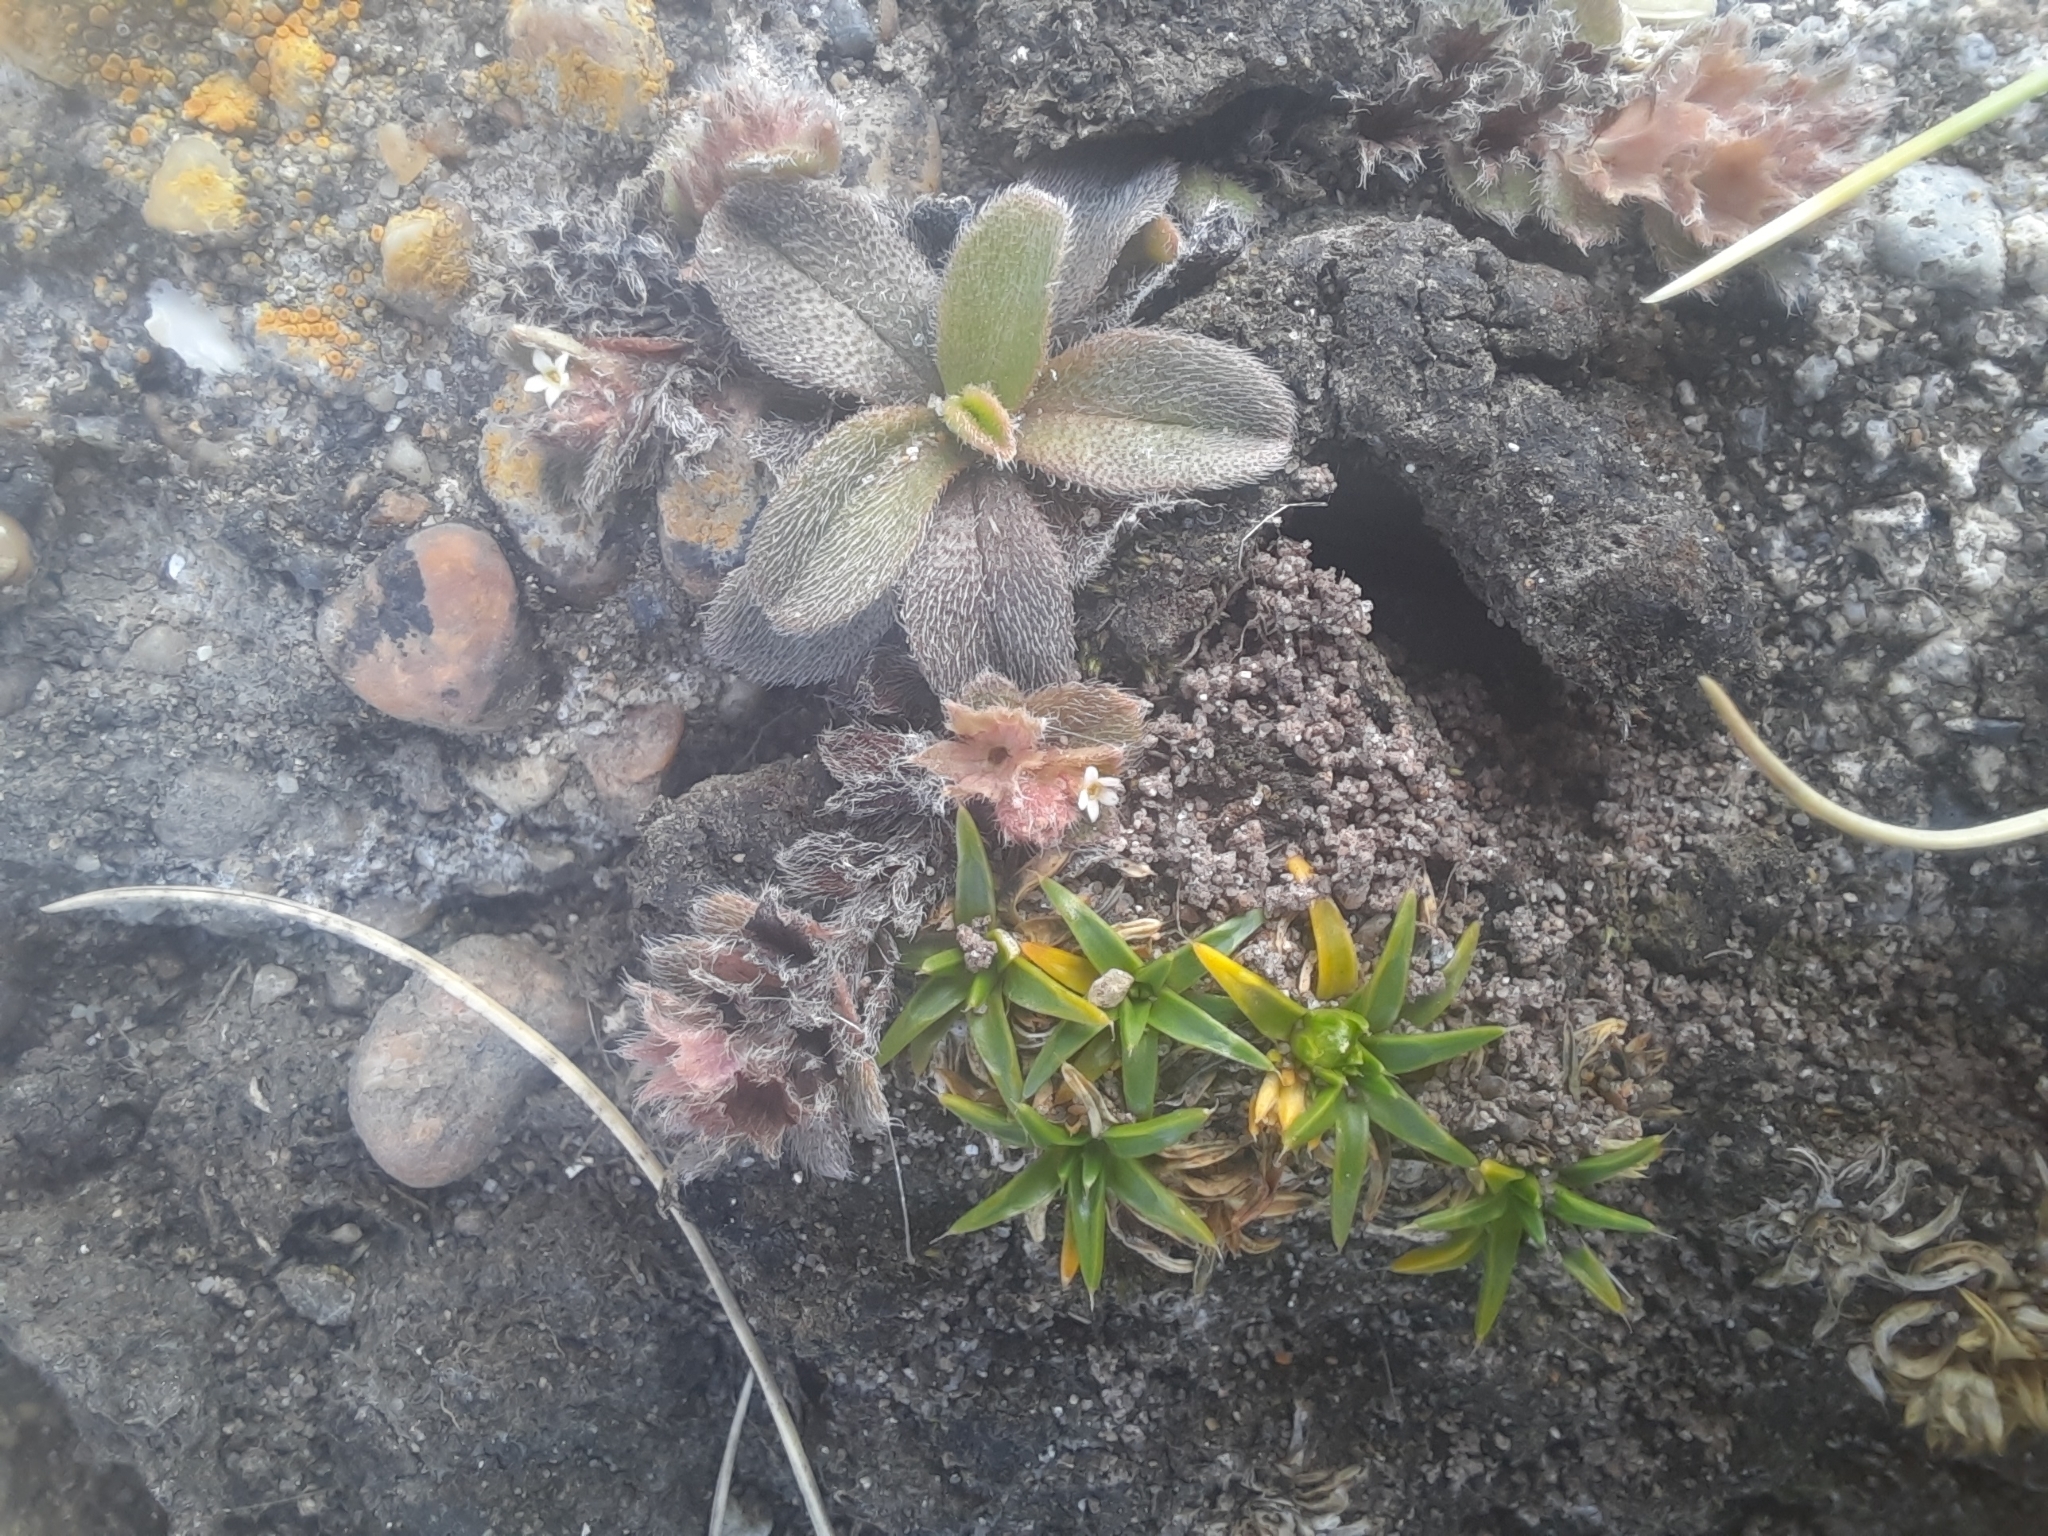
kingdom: Plantae
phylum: Tracheophyta
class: Magnoliopsida
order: Boraginales
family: Boraginaceae
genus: Myosotis
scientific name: Myosotis antarctica
